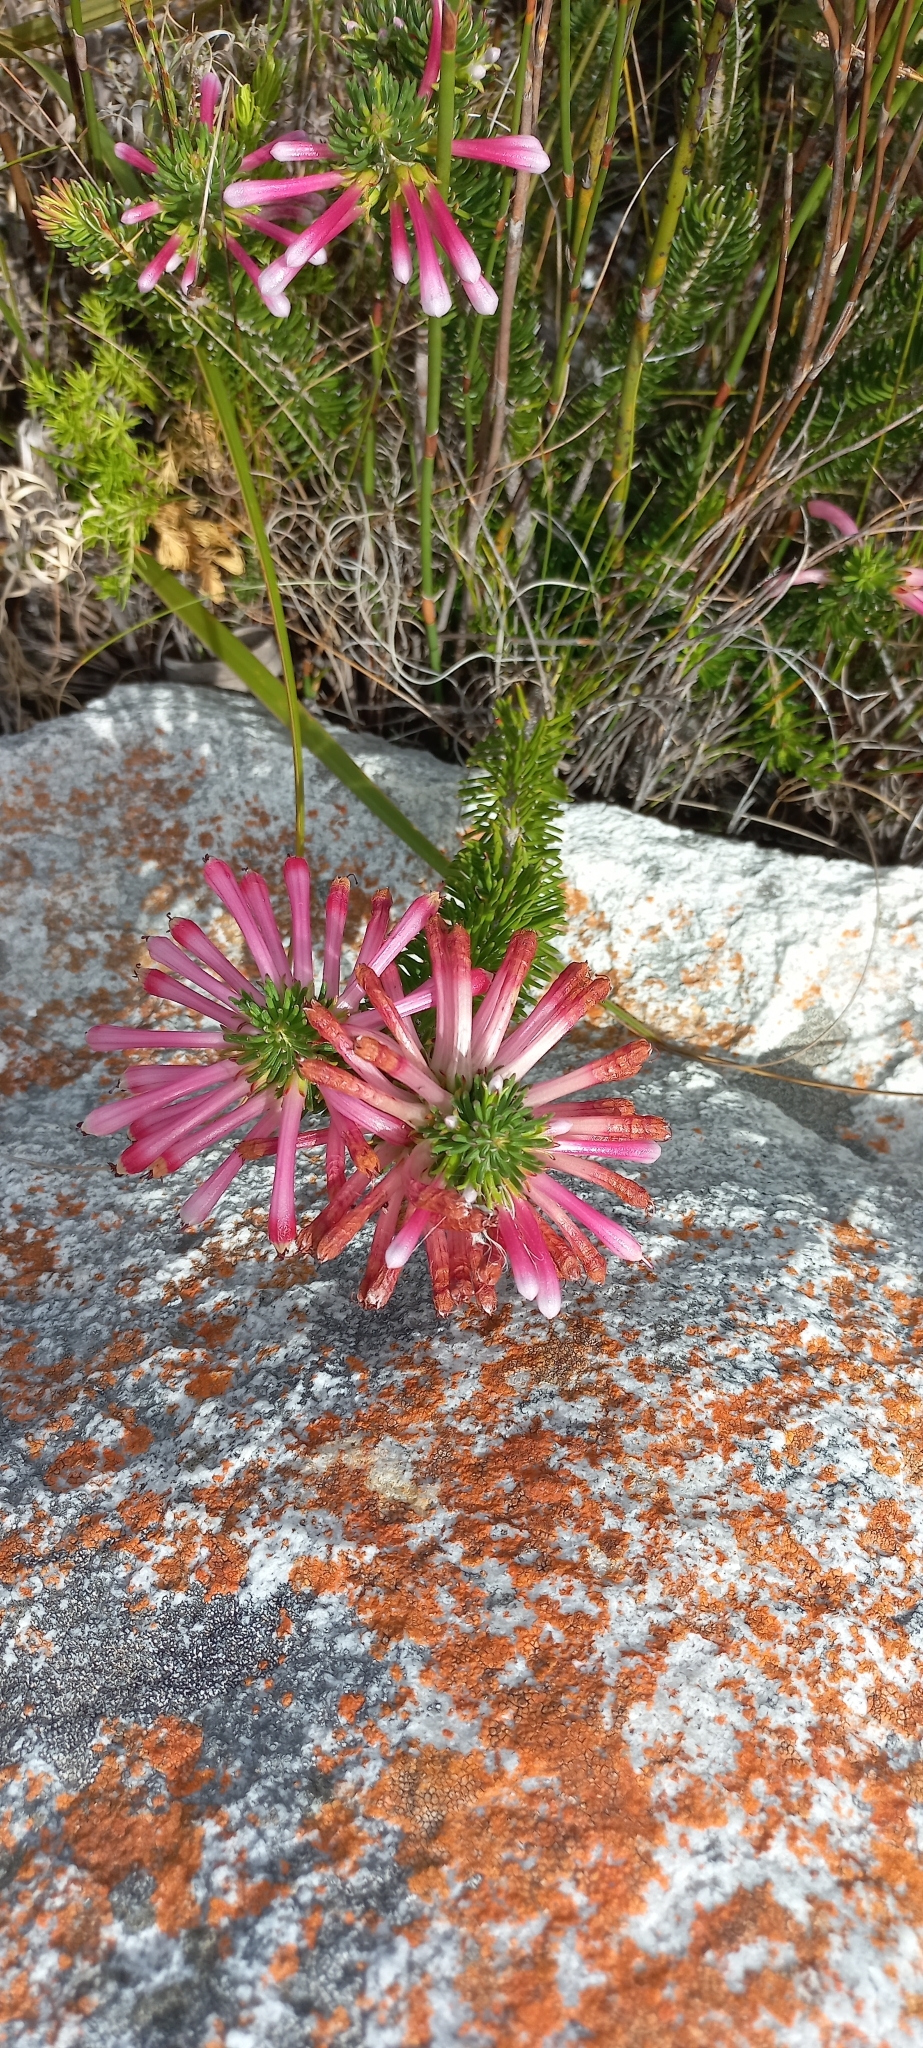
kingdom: Plantae
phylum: Tracheophyta
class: Magnoliopsida
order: Ericales
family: Ericaceae
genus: Erica
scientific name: Erica thomae
